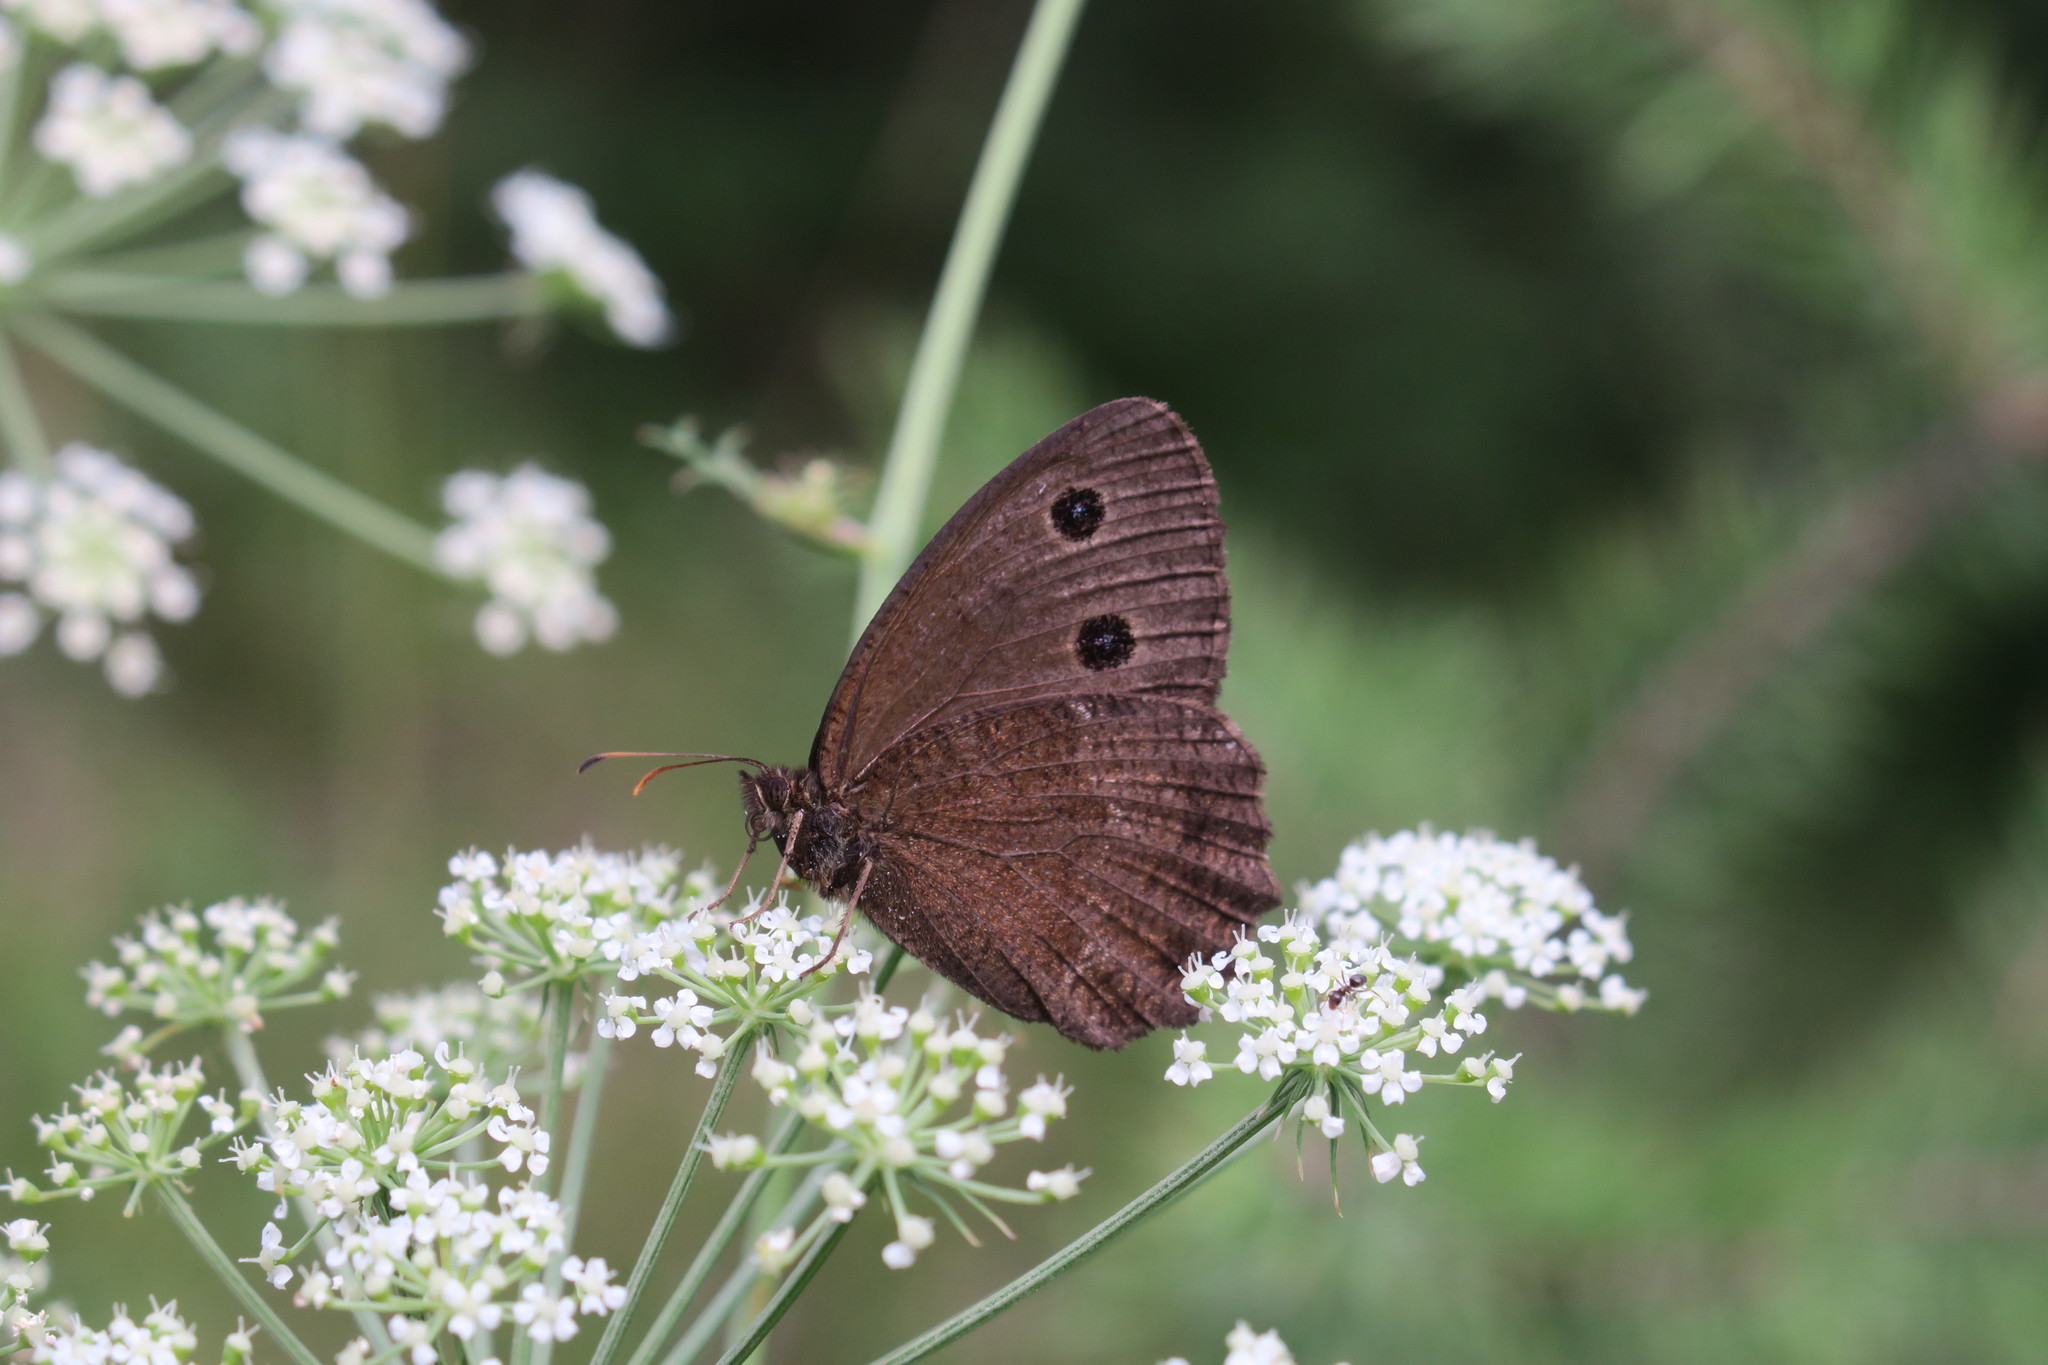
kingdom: Animalia
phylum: Arthropoda
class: Insecta
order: Lepidoptera
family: Nymphalidae
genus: Minois
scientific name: Minois dryas
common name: Dryad
